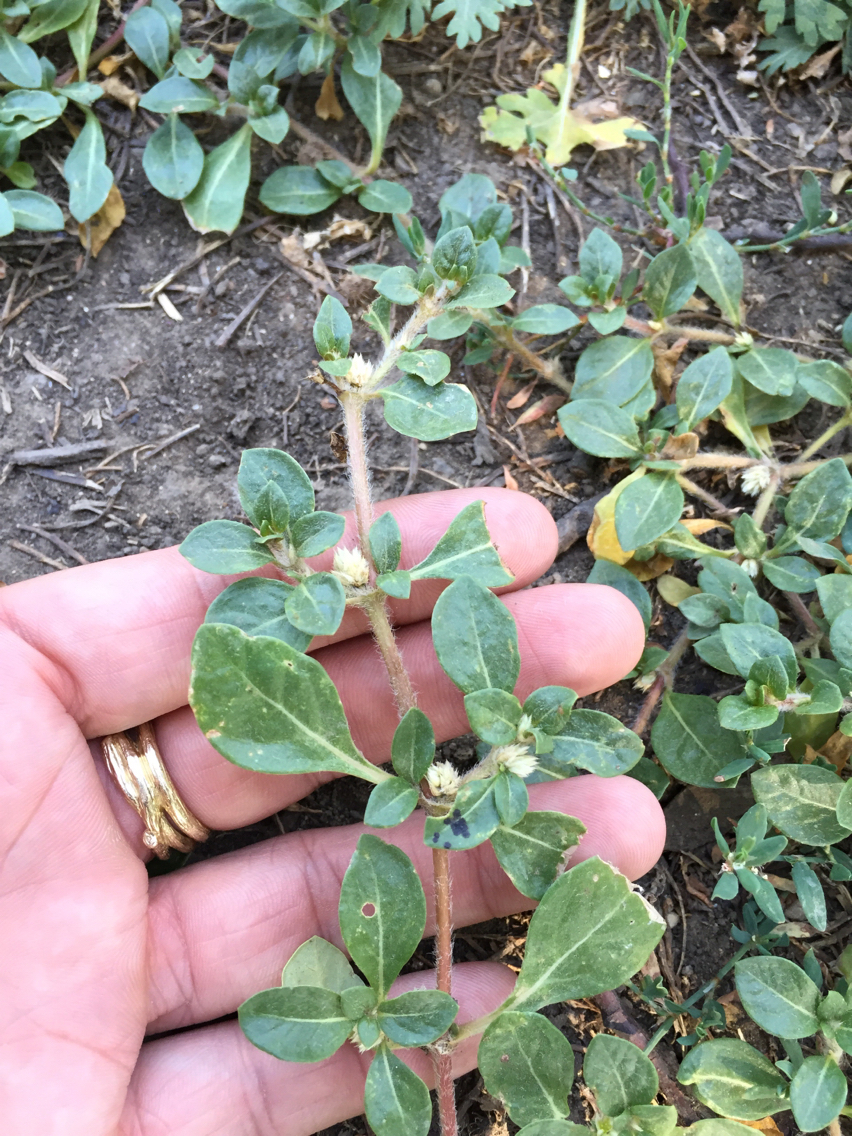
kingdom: Plantae
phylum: Tracheophyta
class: Magnoliopsida
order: Caryophyllales
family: Amaranthaceae
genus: Alternanthera
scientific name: Alternanthera caracasana
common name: Washerwoman
